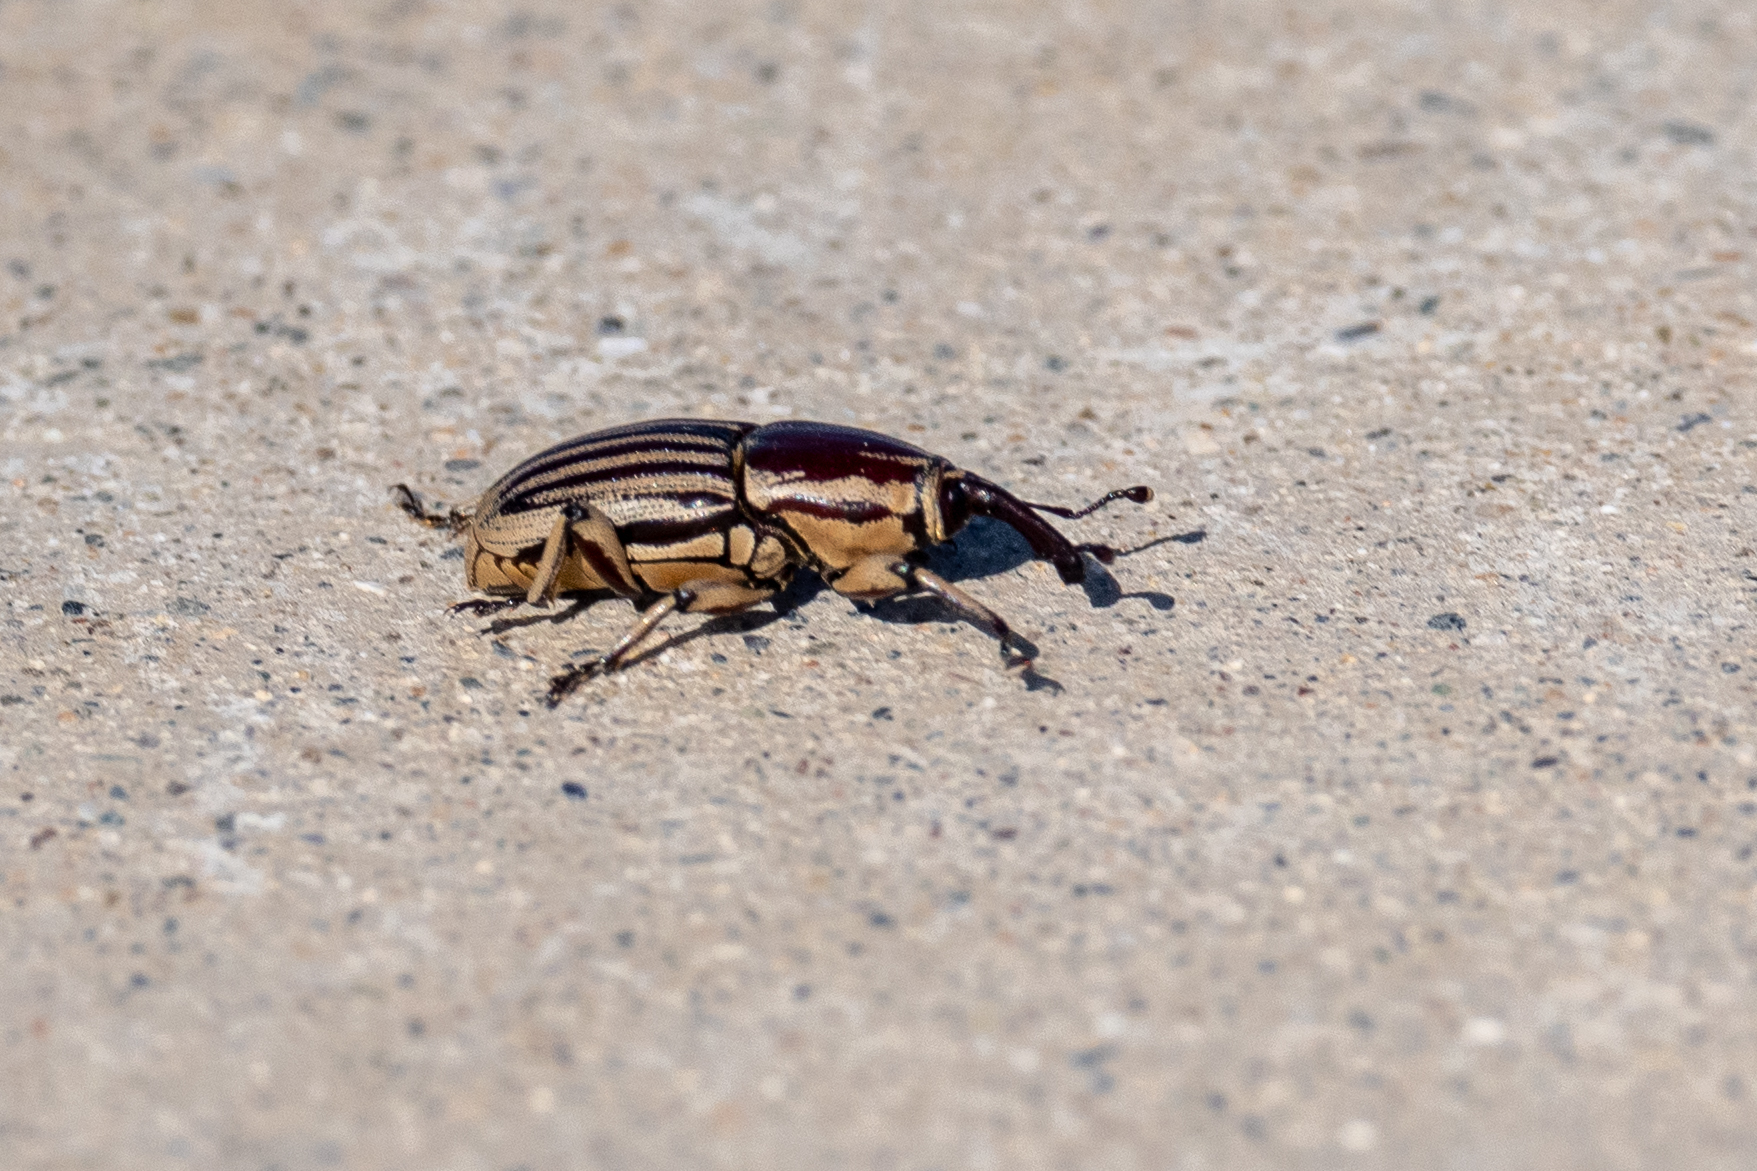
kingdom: Animalia
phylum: Arthropoda
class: Insecta
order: Coleoptera
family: Dryophthoridae
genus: Sphenophorus
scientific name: Sphenophorus aequalis
